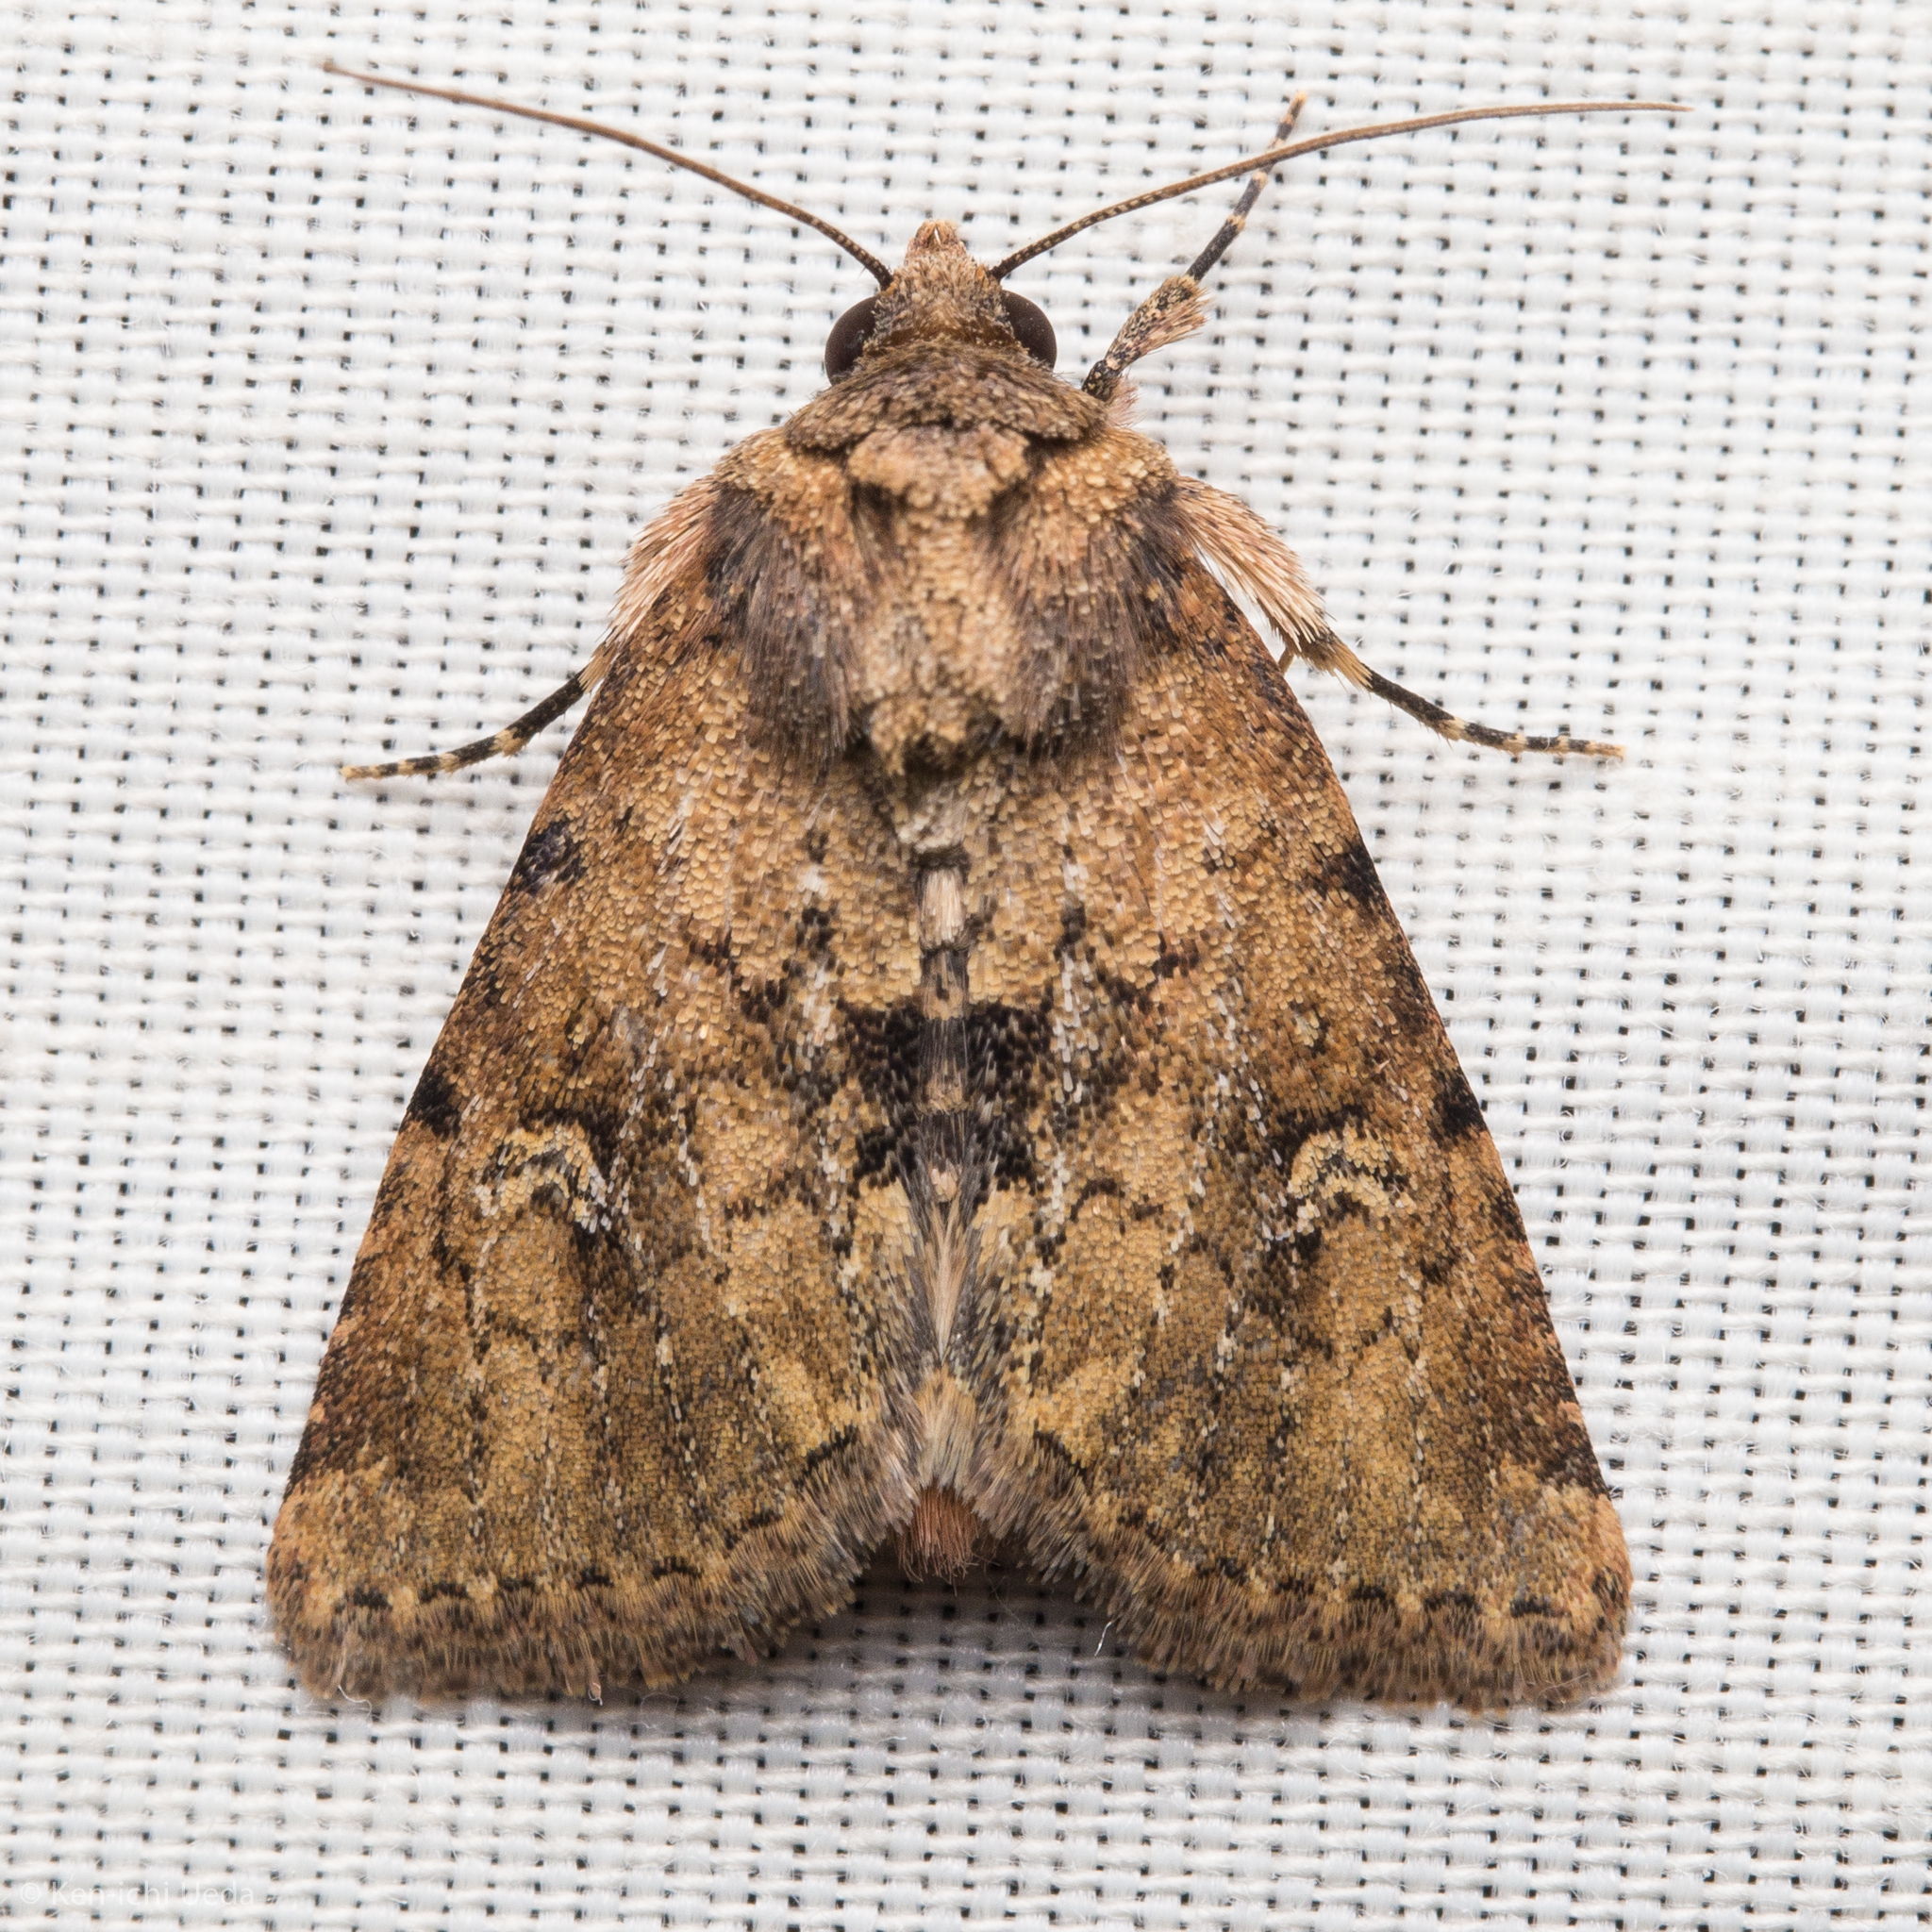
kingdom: Animalia
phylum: Arthropoda
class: Insecta
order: Lepidoptera
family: Noctuidae
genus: Properigea
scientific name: Properigea suffusa
